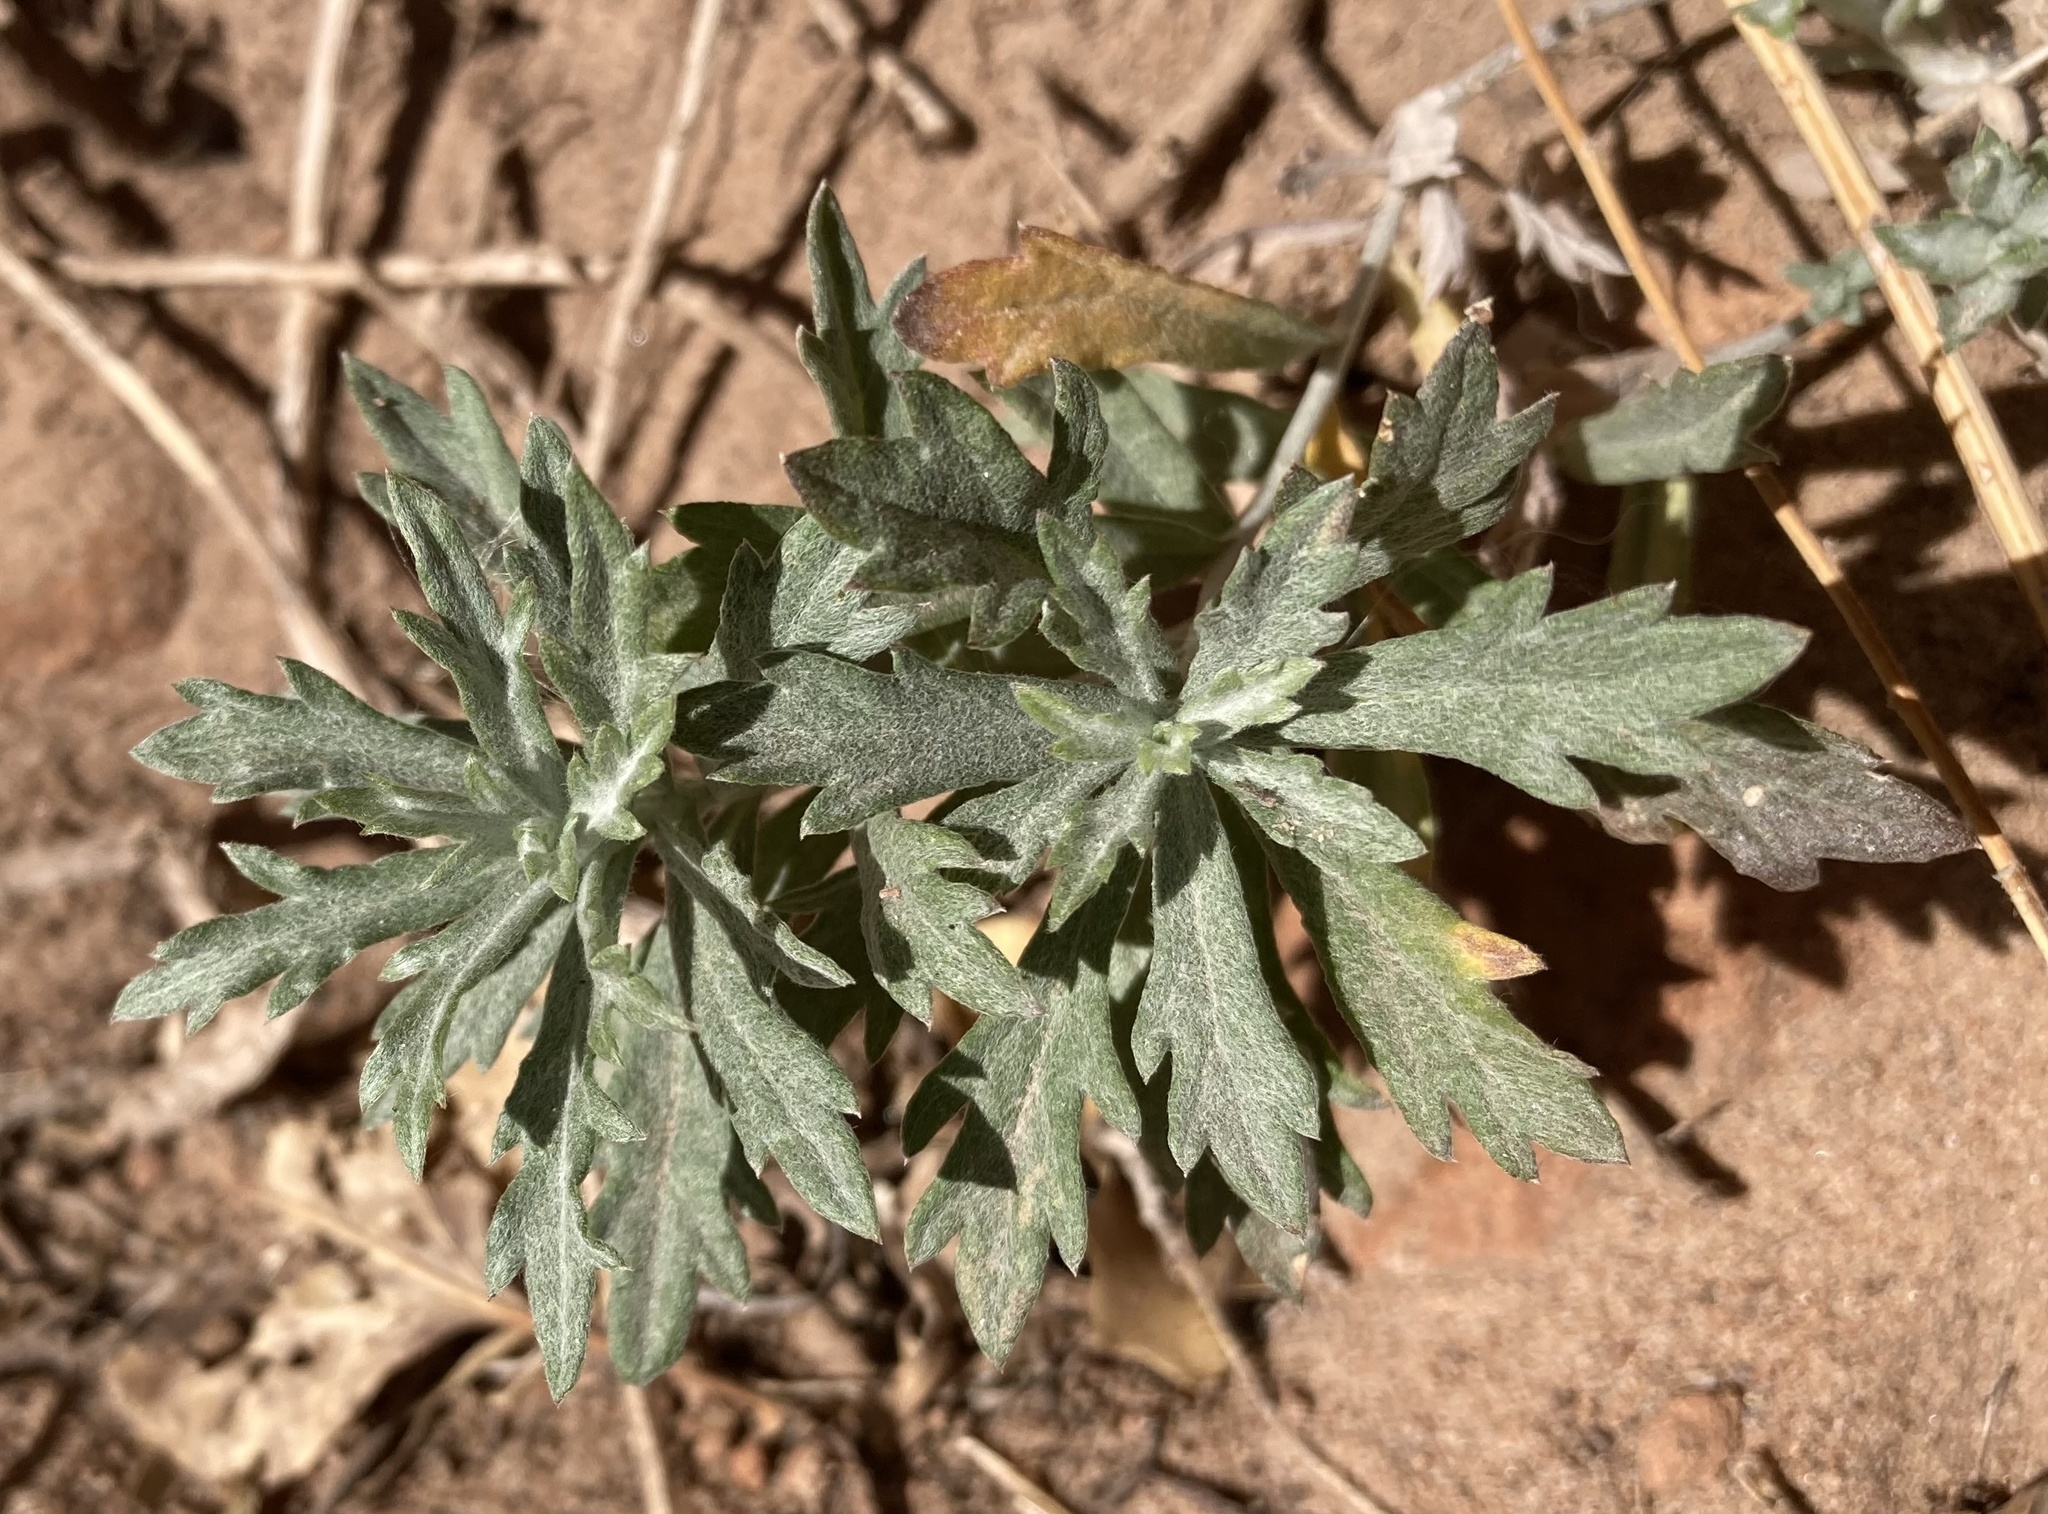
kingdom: Plantae
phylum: Tracheophyta
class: Magnoliopsida
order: Asterales
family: Asteraceae
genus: Artemisia
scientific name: Artemisia ludoviciana
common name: Western mugwort
